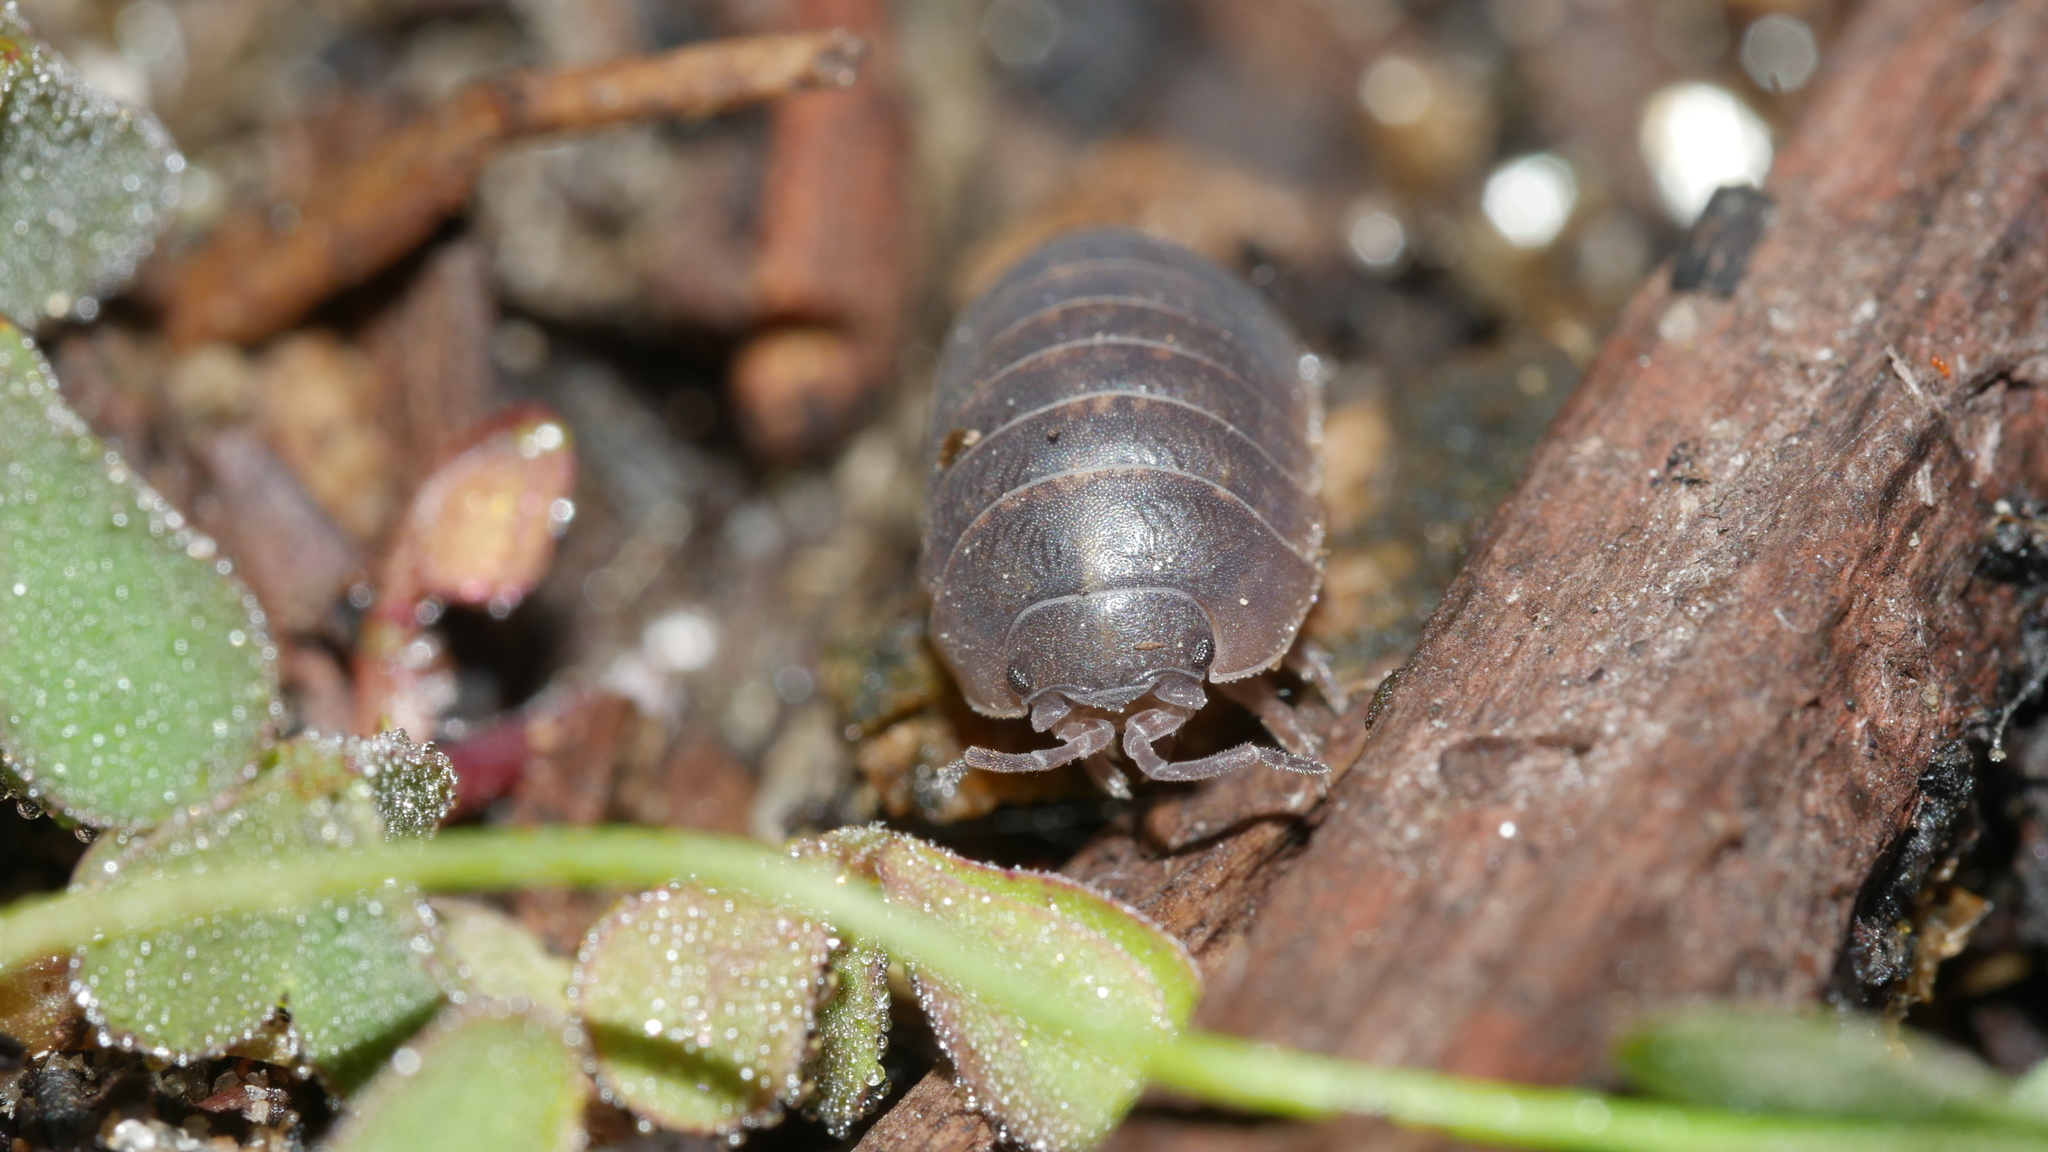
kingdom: Animalia
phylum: Arthropoda
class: Malacostraca
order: Isopoda
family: Armadillidiidae
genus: Armadillidium
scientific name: Armadillidium vulgare
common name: Common pill woodlouse
